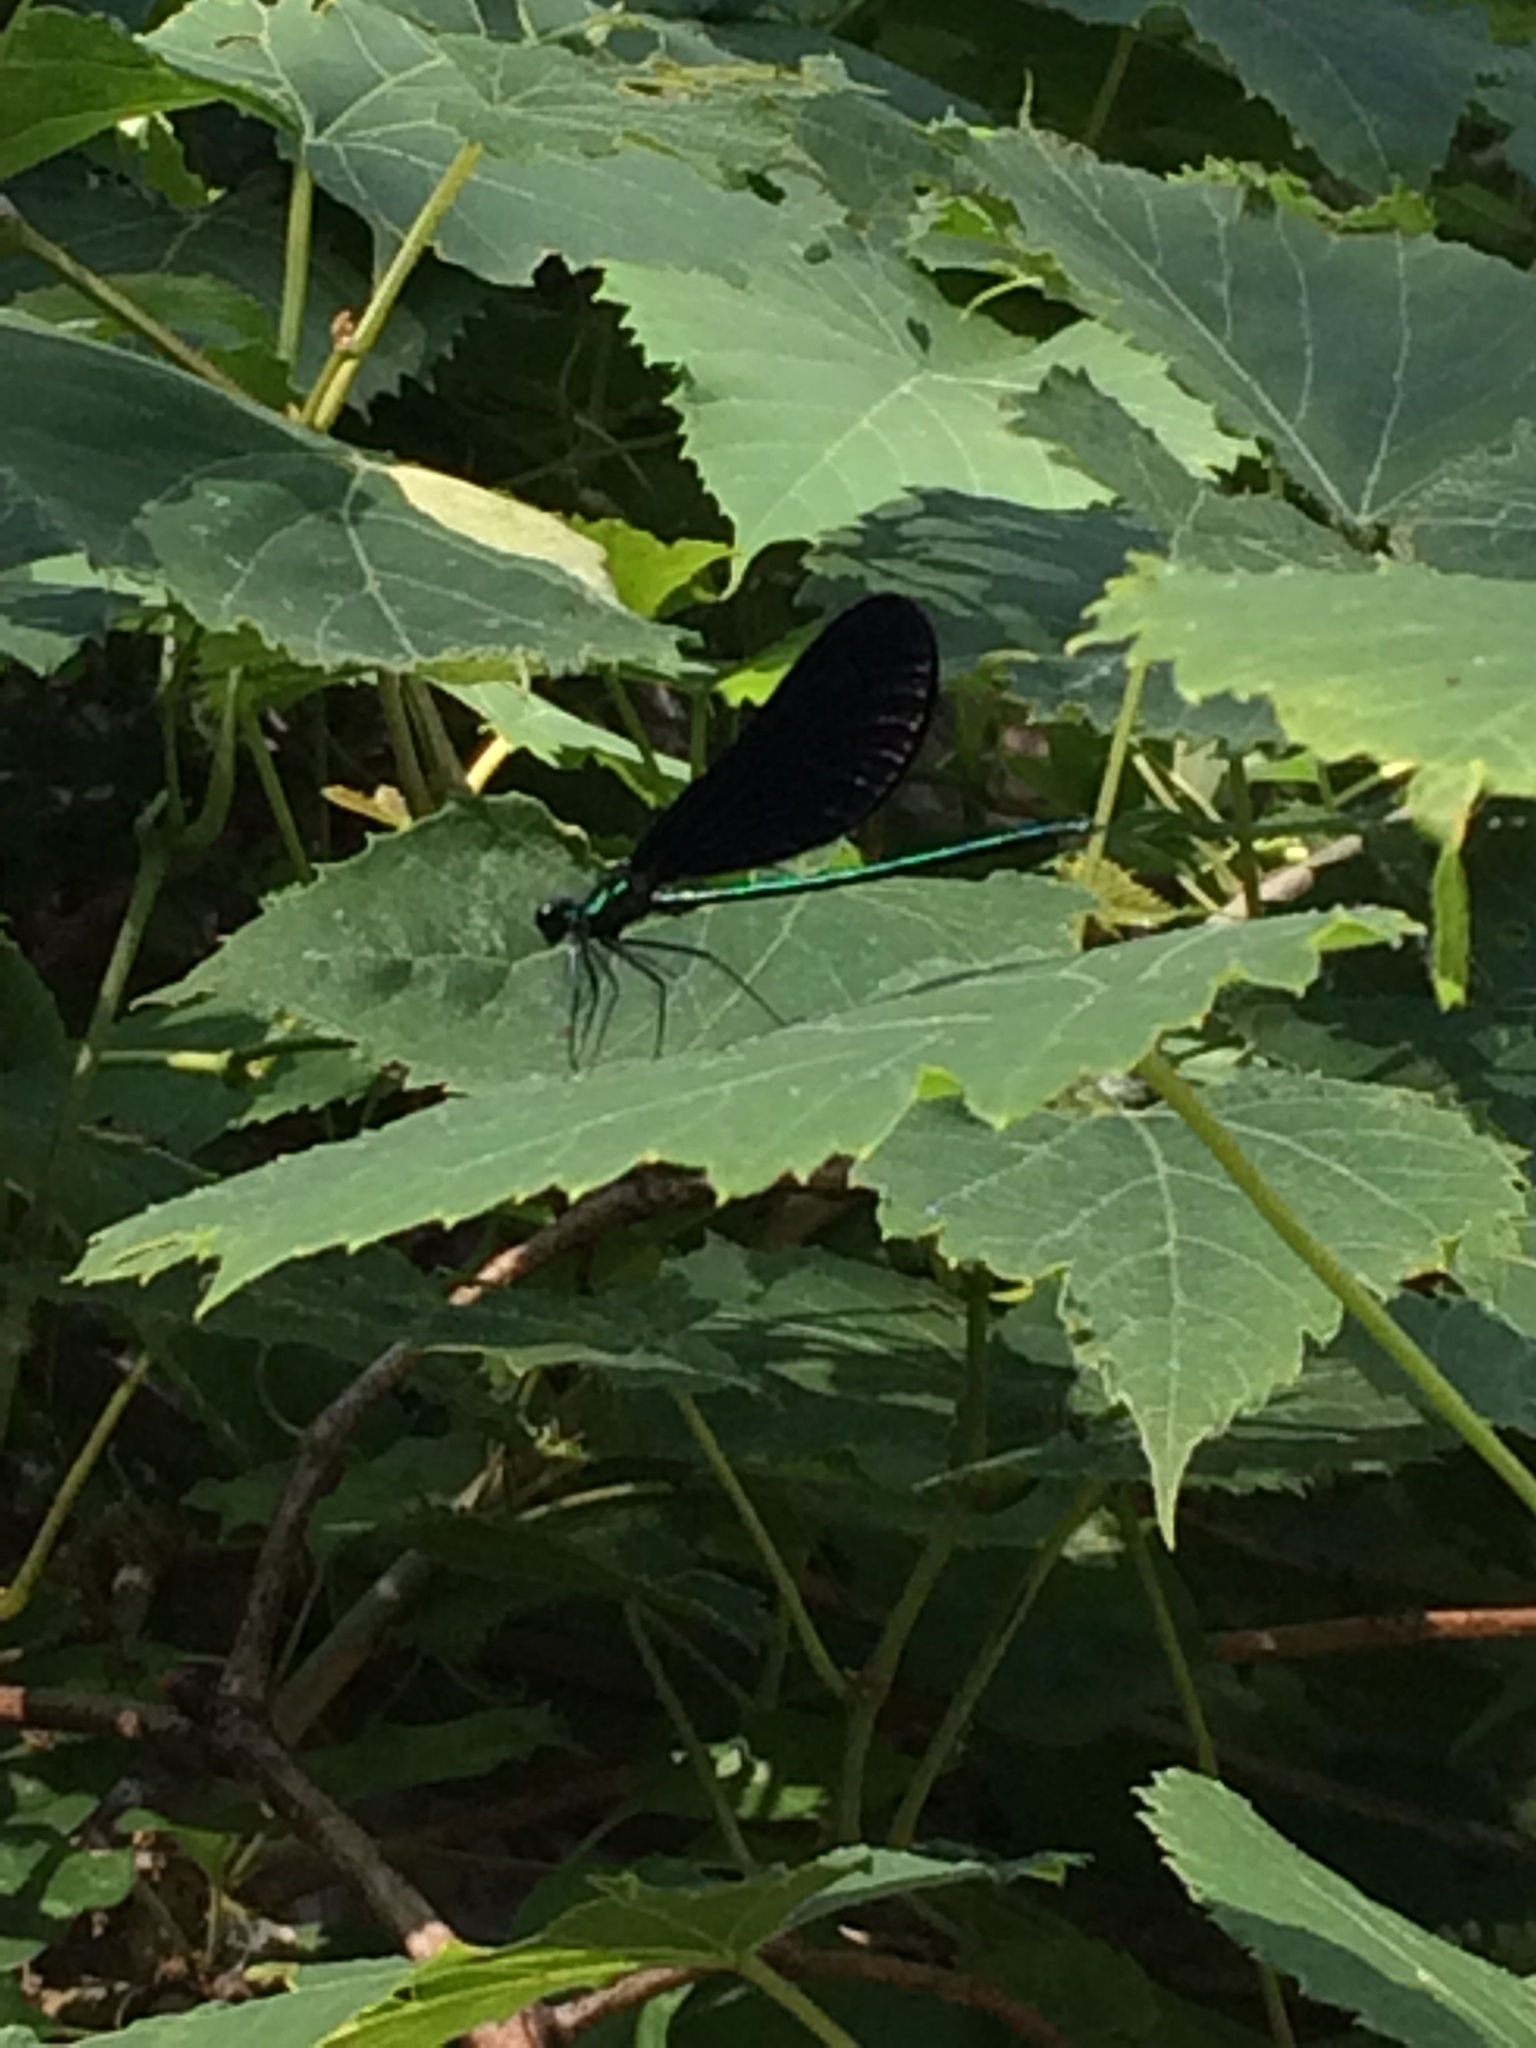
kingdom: Animalia
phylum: Arthropoda
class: Insecta
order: Odonata
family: Calopterygidae
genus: Calopteryx
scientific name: Calopteryx maculata
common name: Ebony jewelwing
